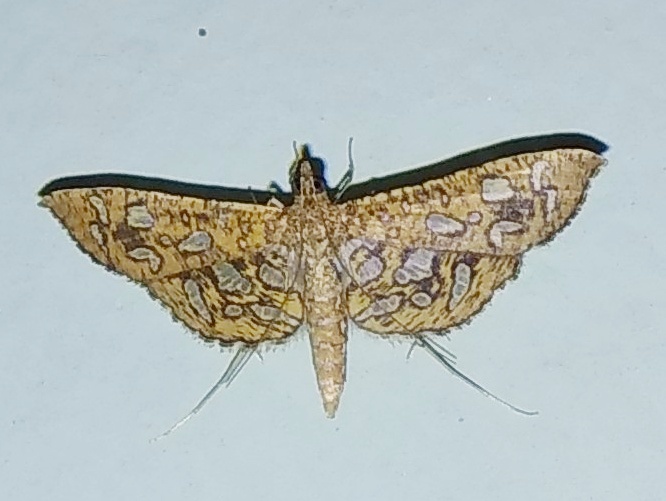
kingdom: Animalia
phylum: Arthropoda
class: Insecta
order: Lepidoptera
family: Crambidae
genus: Nausinoe
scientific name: Nausinoe geometralis
